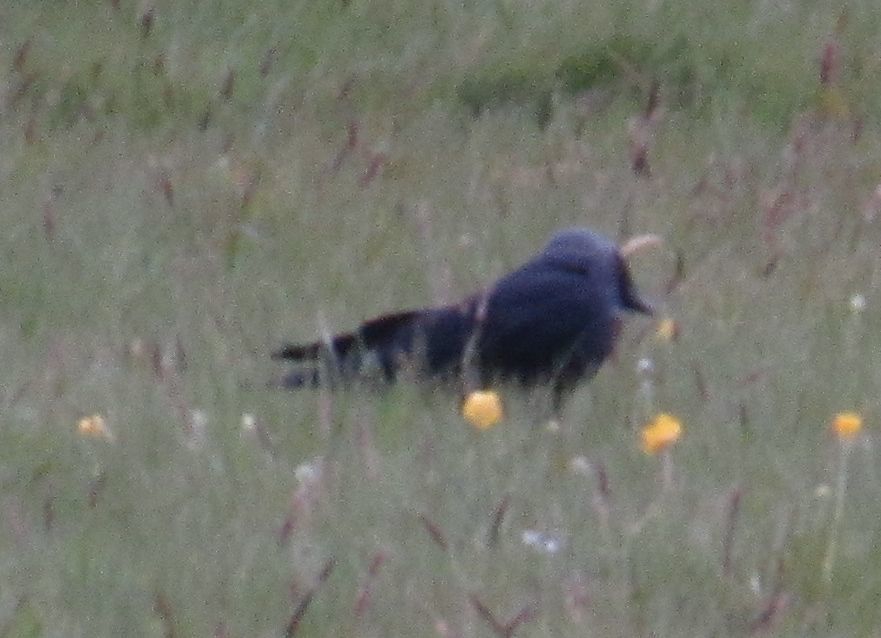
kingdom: Animalia
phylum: Chordata
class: Aves
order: Passeriformes
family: Corvidae
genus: Coloeus
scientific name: Coloeus monedula
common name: Western jackdaw
